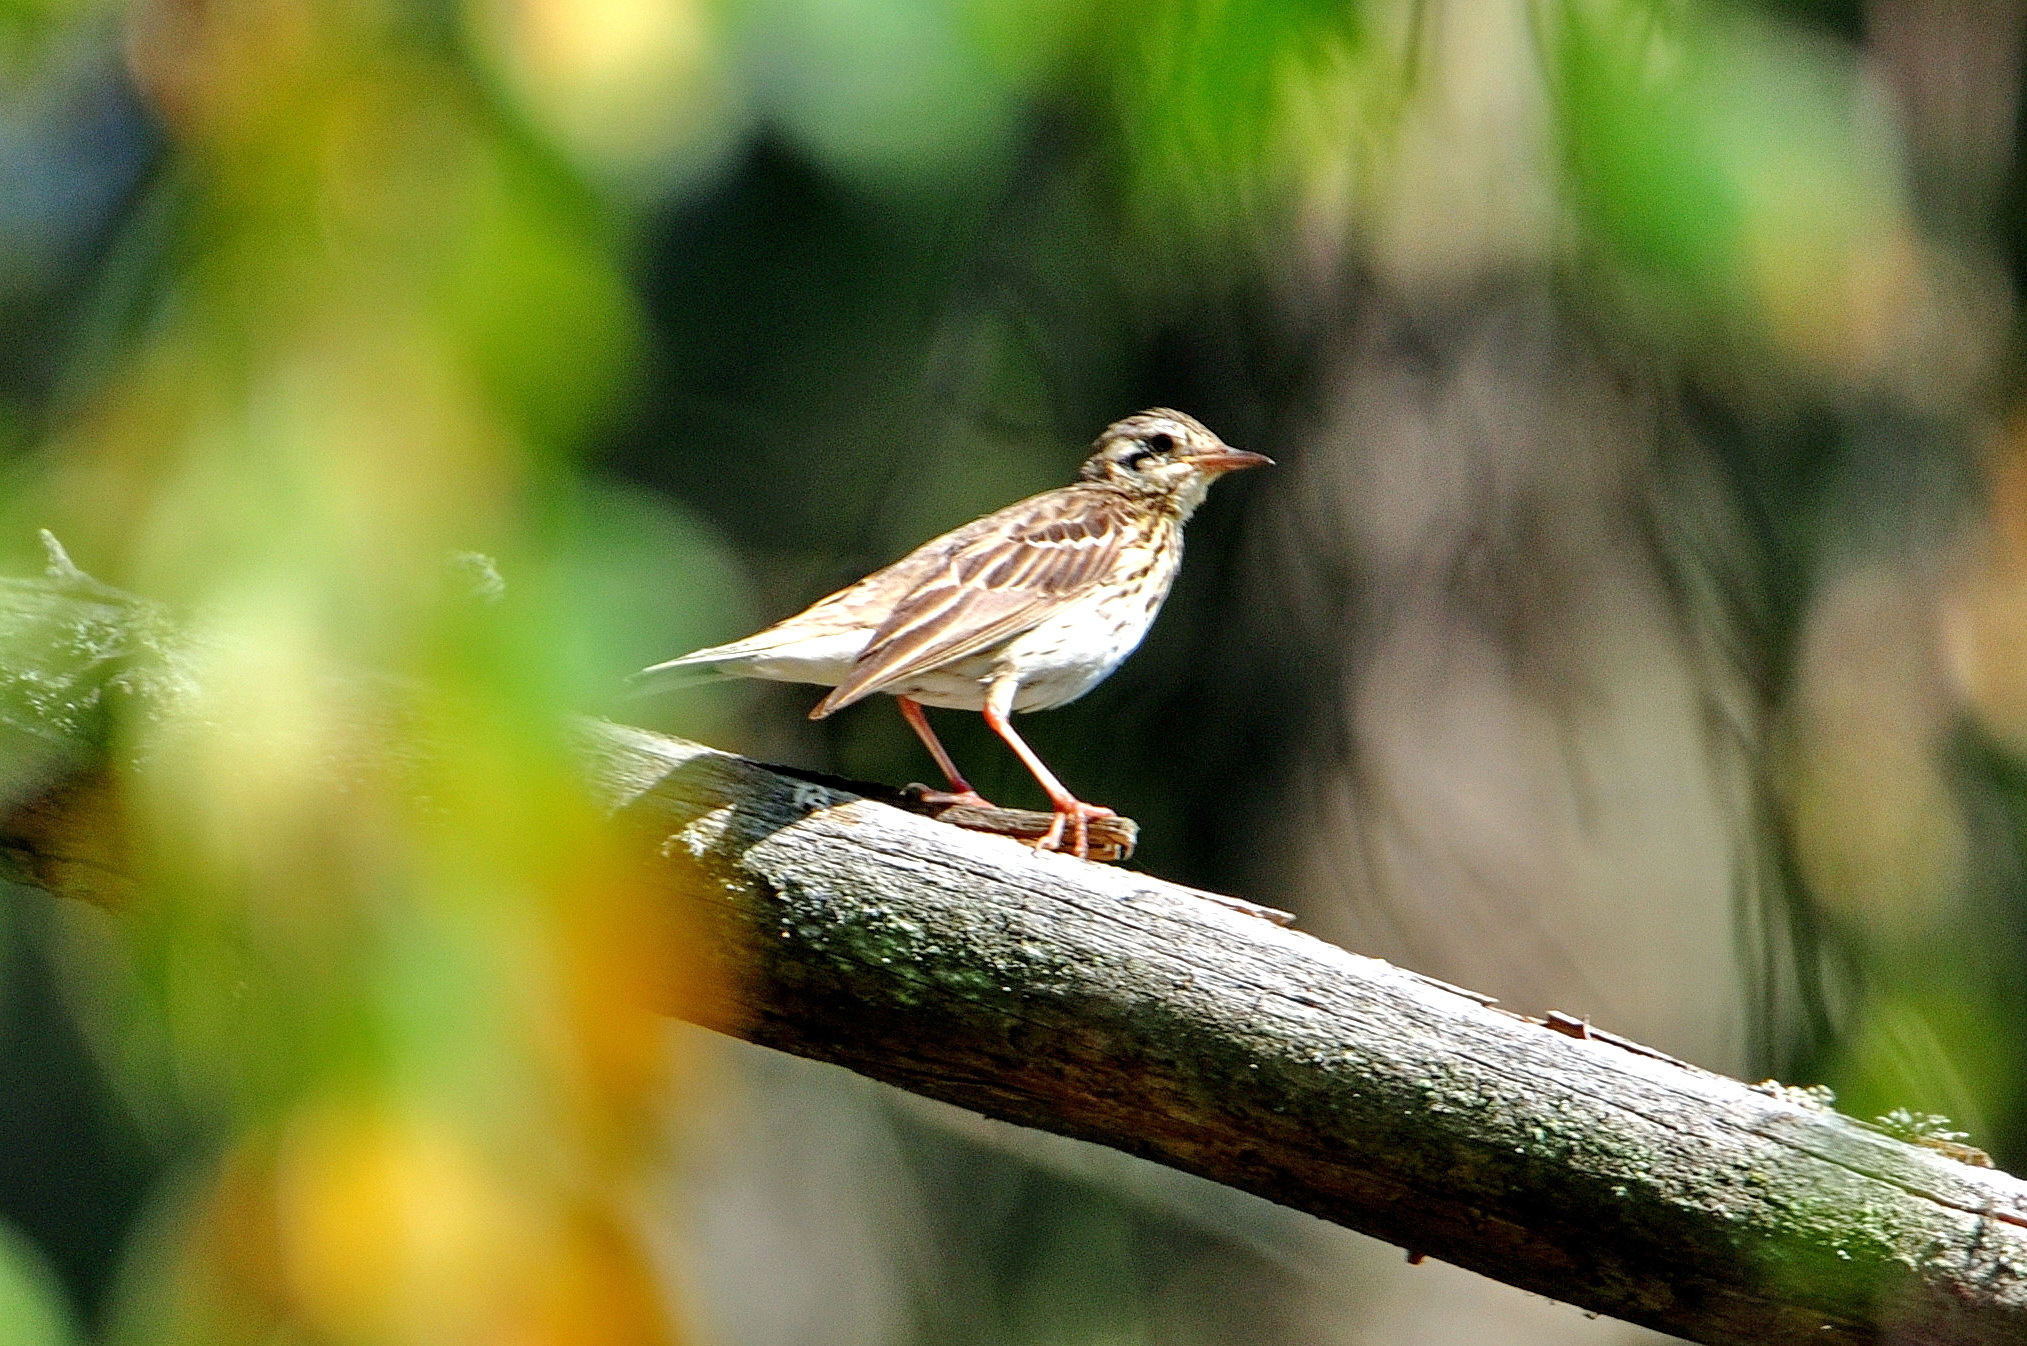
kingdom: Animalia
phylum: Chordata
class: Aves
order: Passeriformes
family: Motacillidae
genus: Anthus
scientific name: Anthus trivialis
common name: Tree pipit
